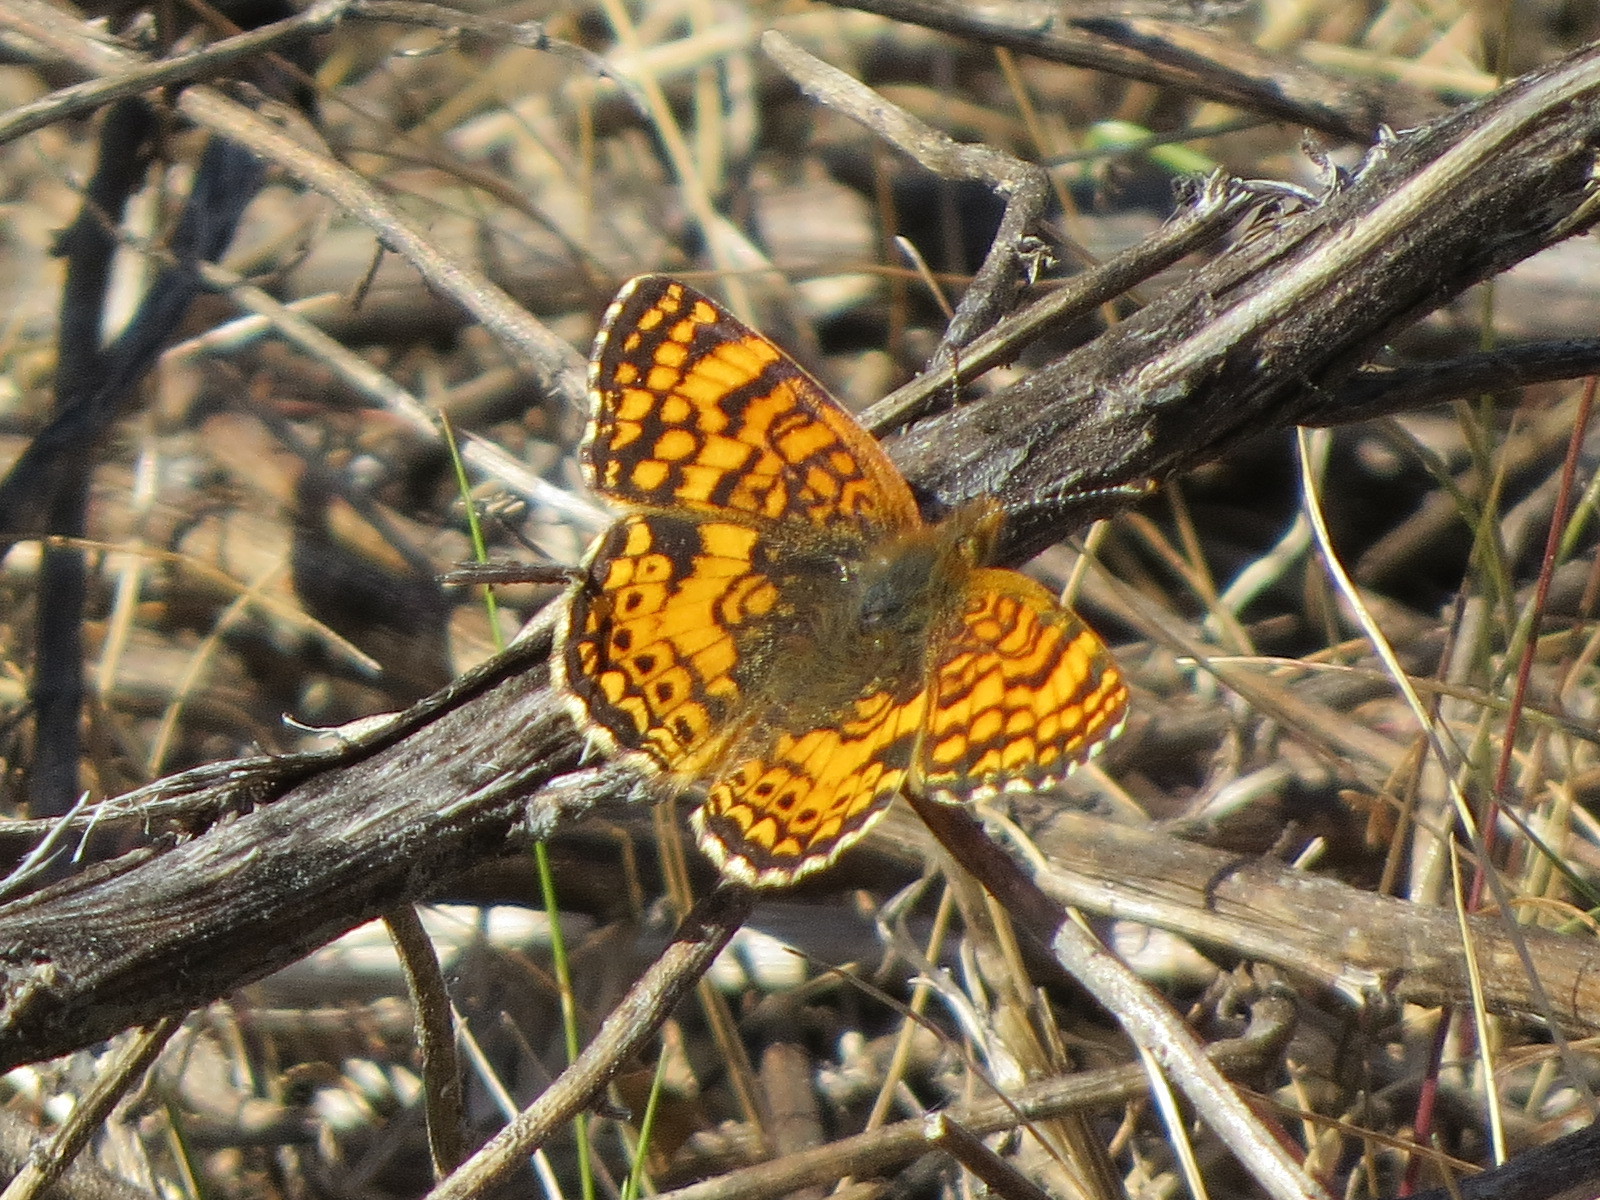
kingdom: Animalia
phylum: Arthropoda
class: Insecta
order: Lepidoptera
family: Nymphalidae
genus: Eresia
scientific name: Eresia aveyrona
